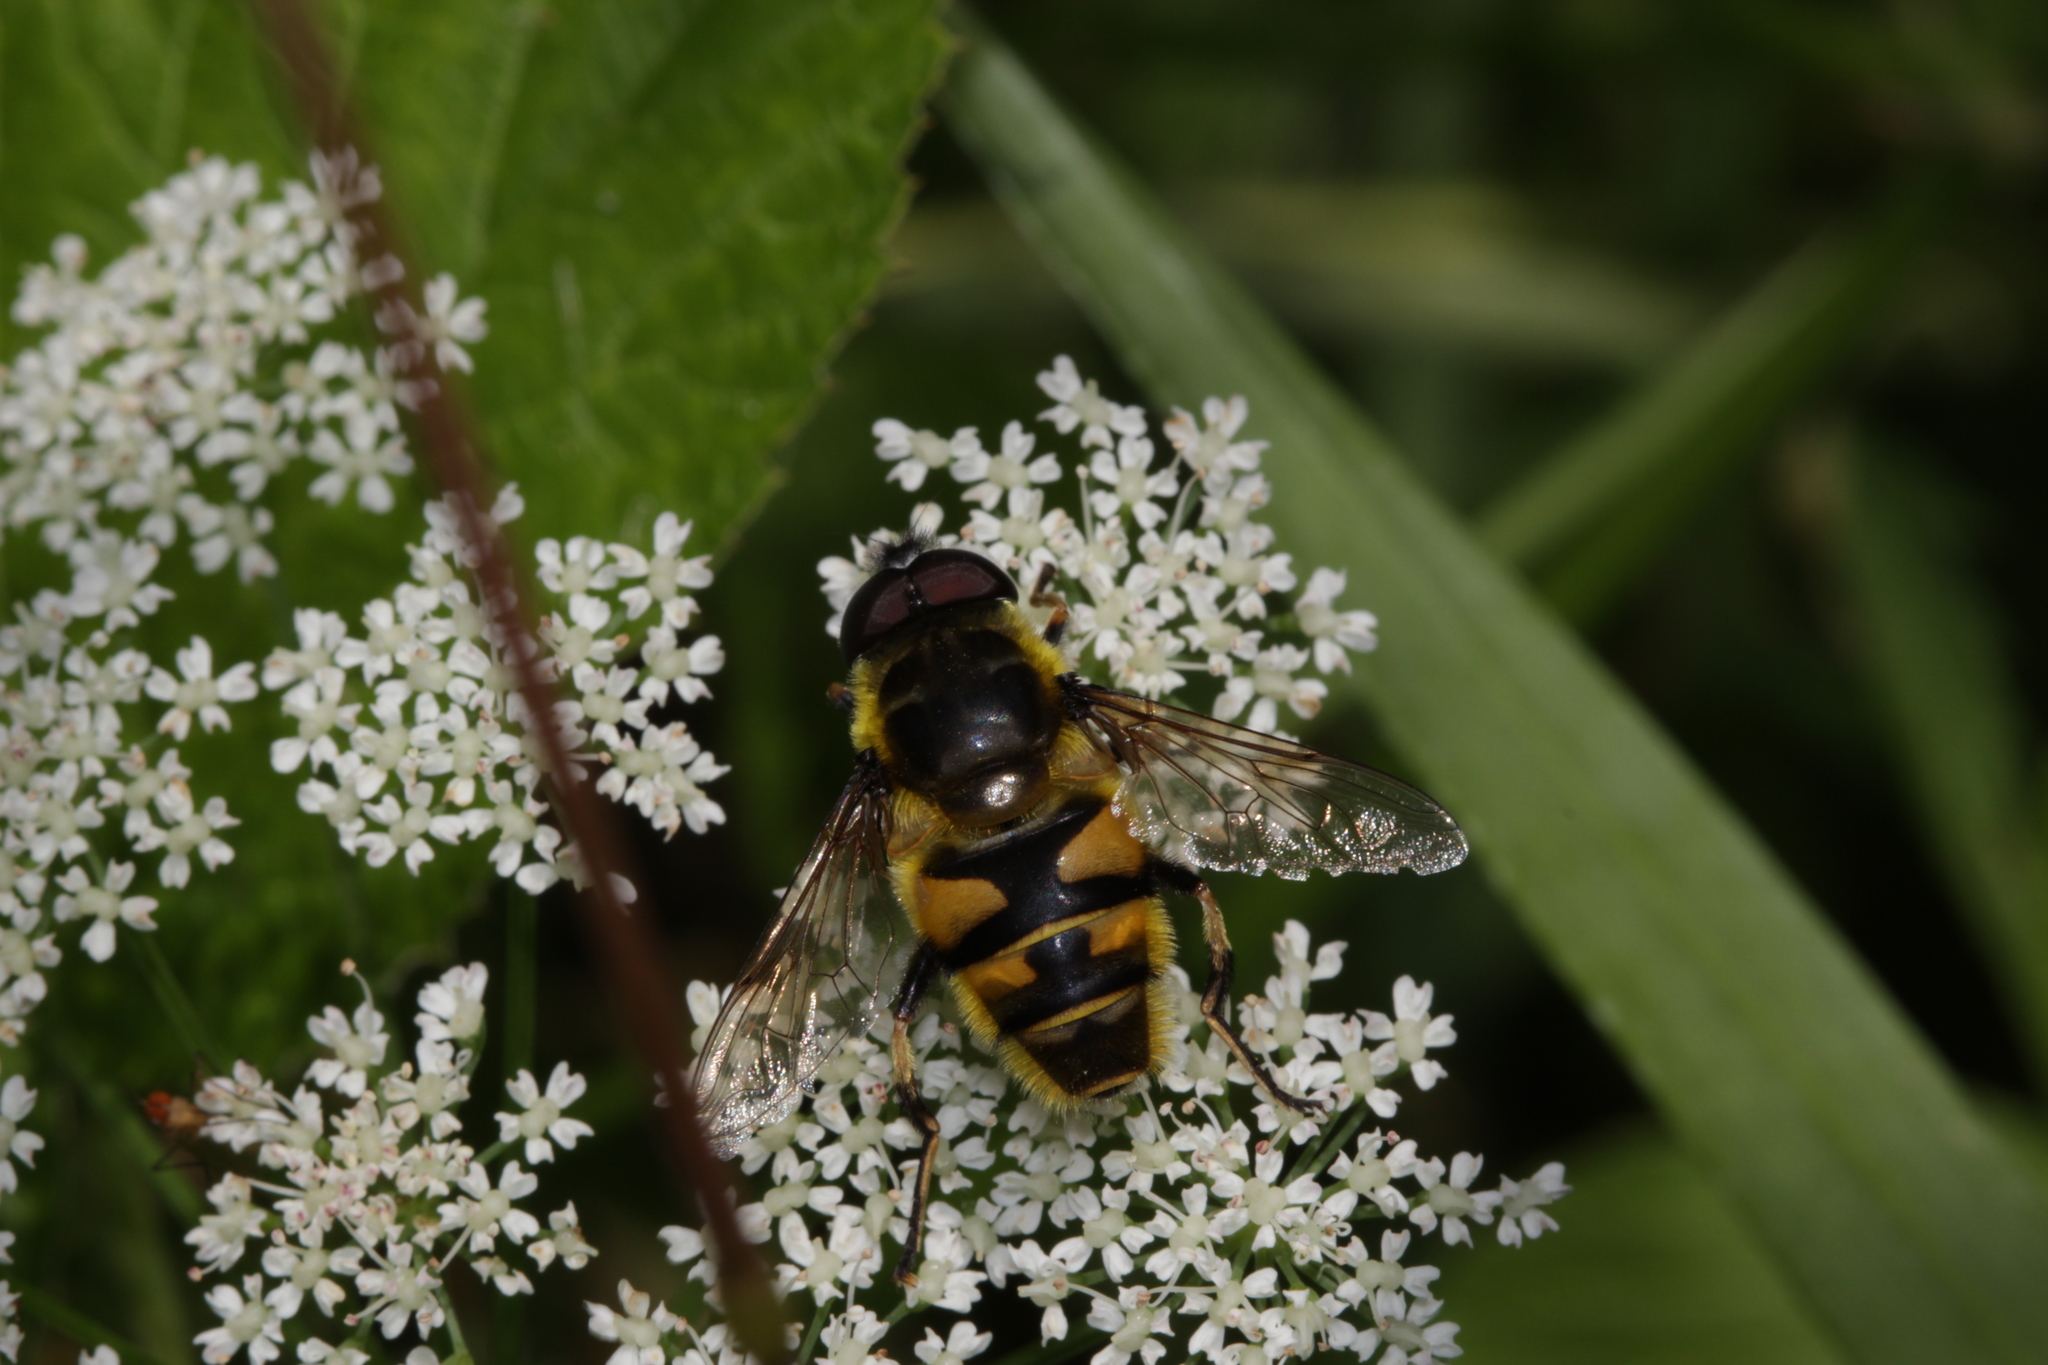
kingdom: Animalia
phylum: Arthropoda
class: Insecta
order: Diptera
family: Syrphidae
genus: Myathropa
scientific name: Myathropa florea
